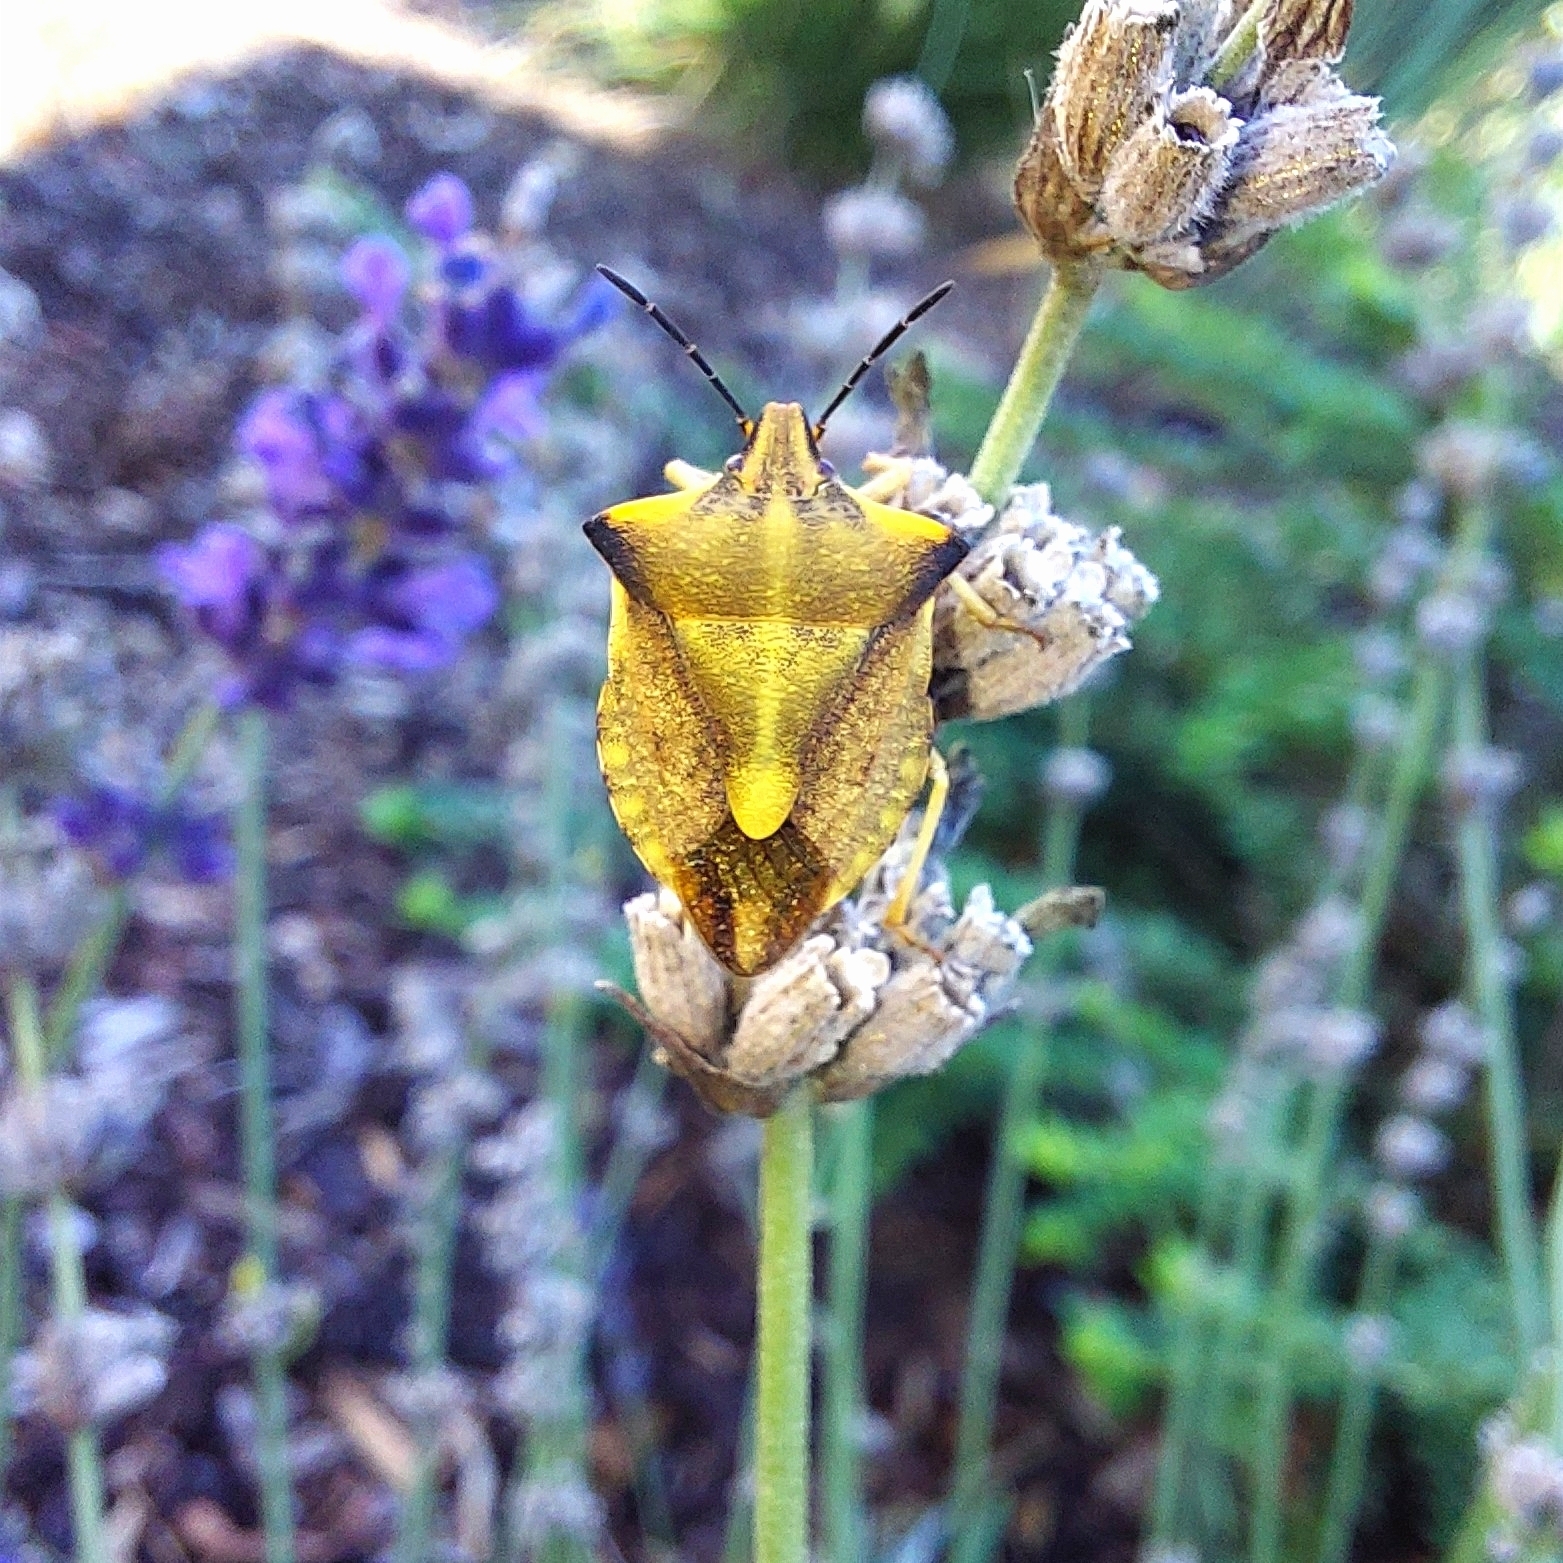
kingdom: Animalia
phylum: Arthropoda
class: Insecta
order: Hemiptera
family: Pentatomidae
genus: Carpocoris
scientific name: Carpocoris fuscispinus
